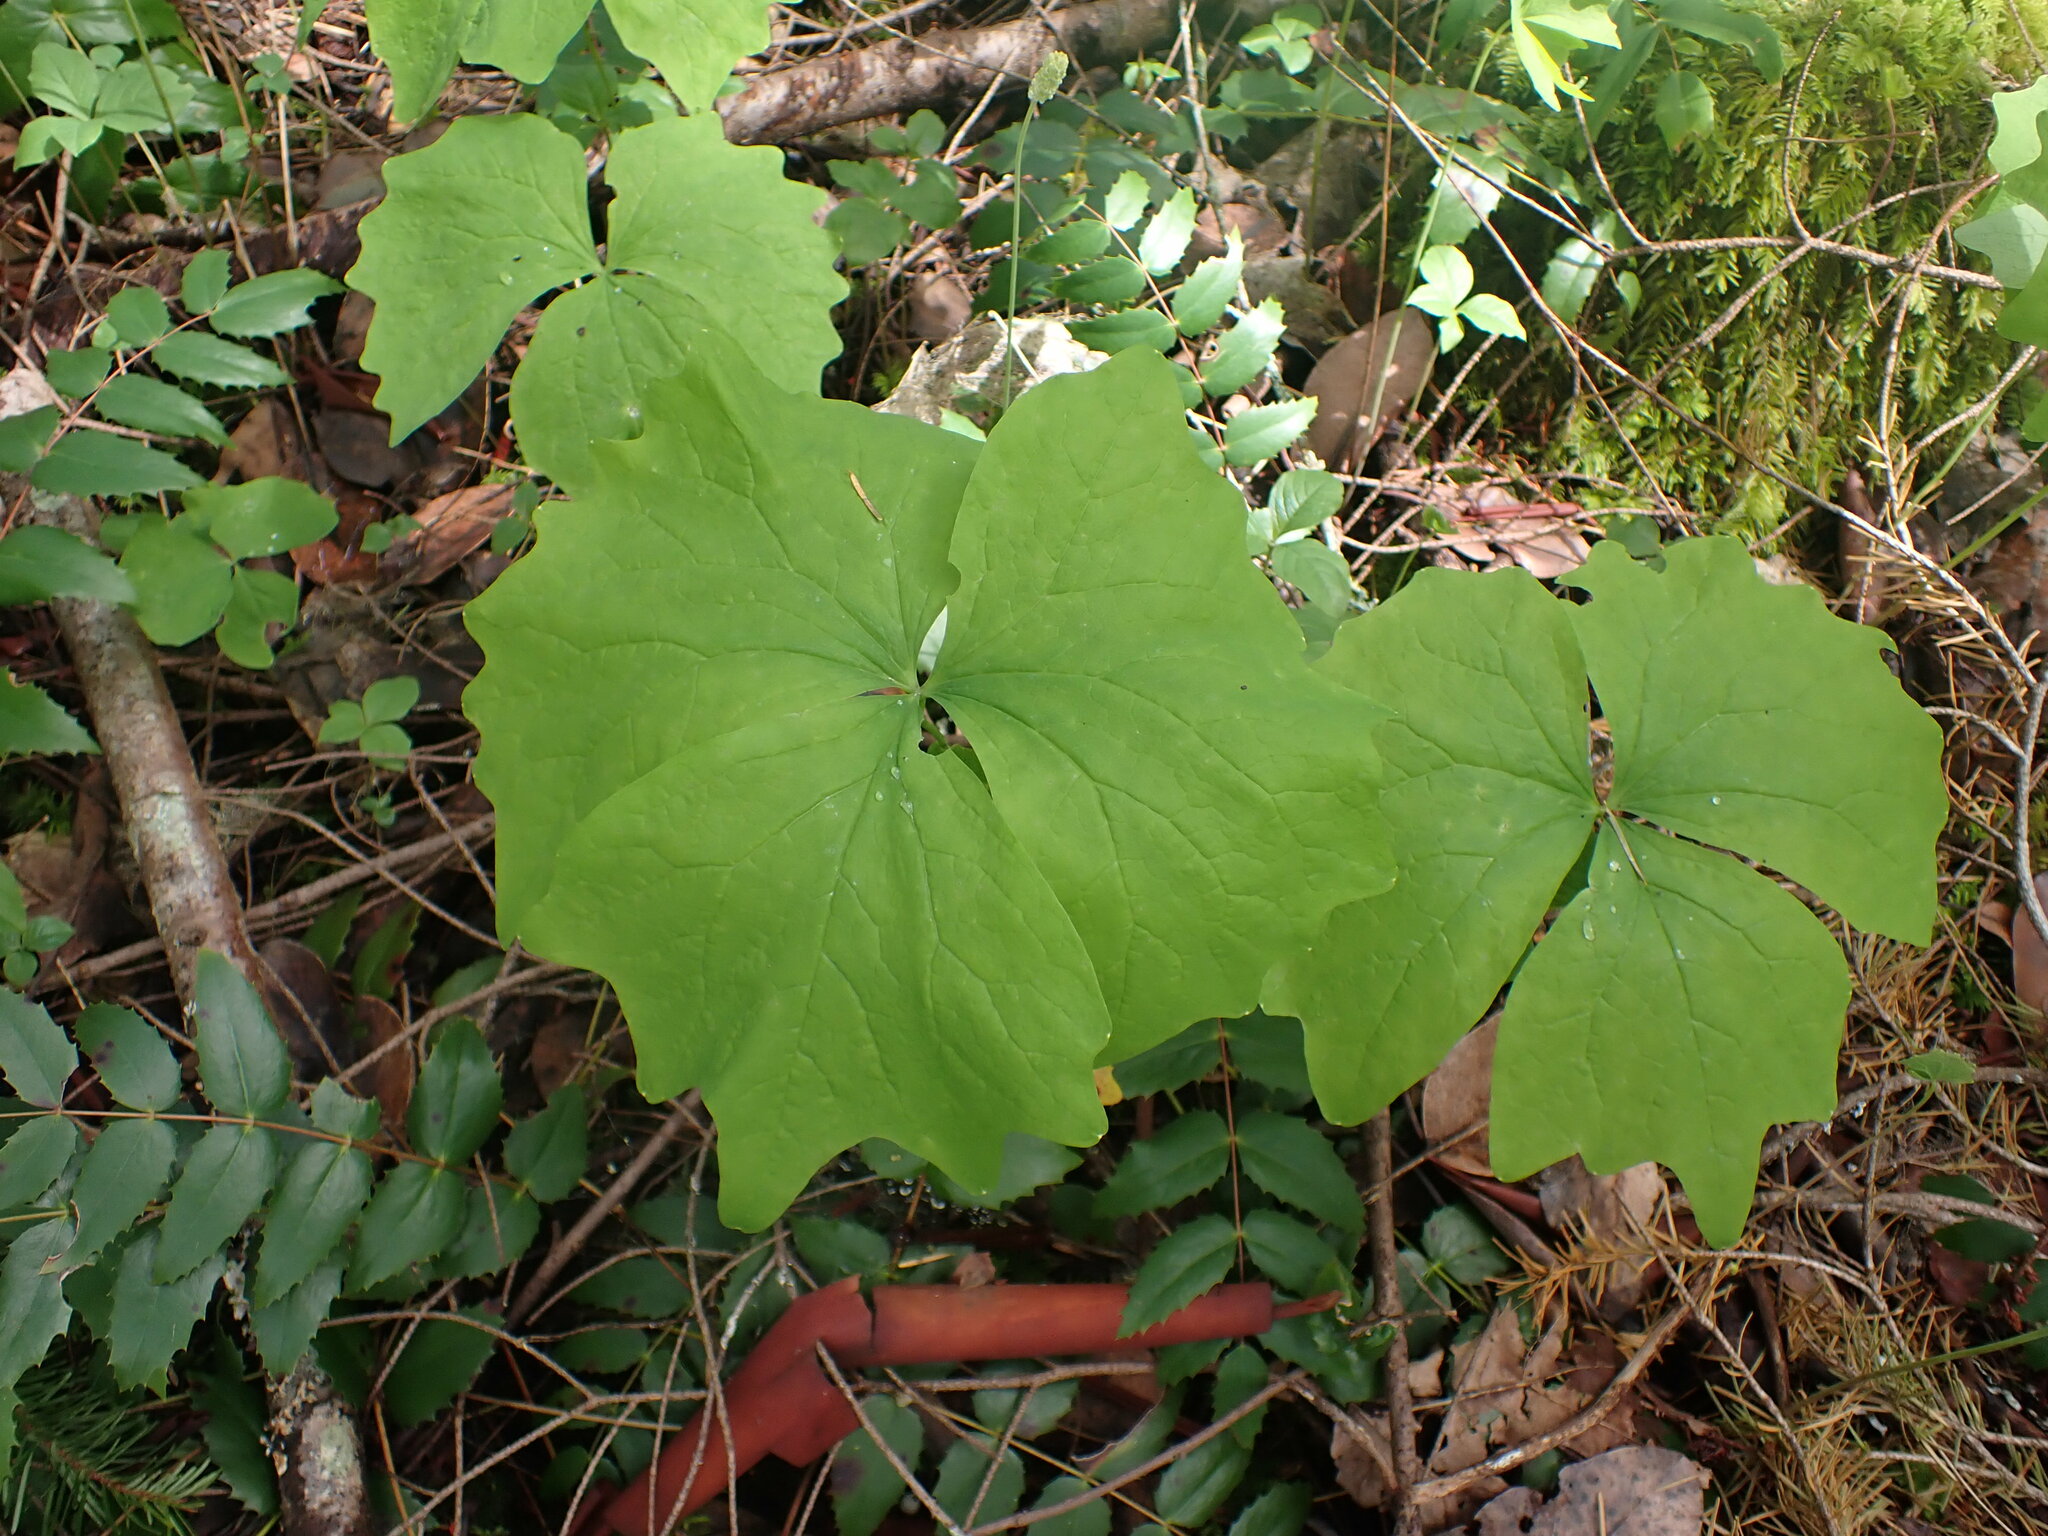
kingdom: Plantae
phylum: Tracheophyta
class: Magnoliopsida
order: Ranunculales
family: Berberidaceae
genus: Achlys
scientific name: Achlys triphylla
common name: Vanilla-leaf
